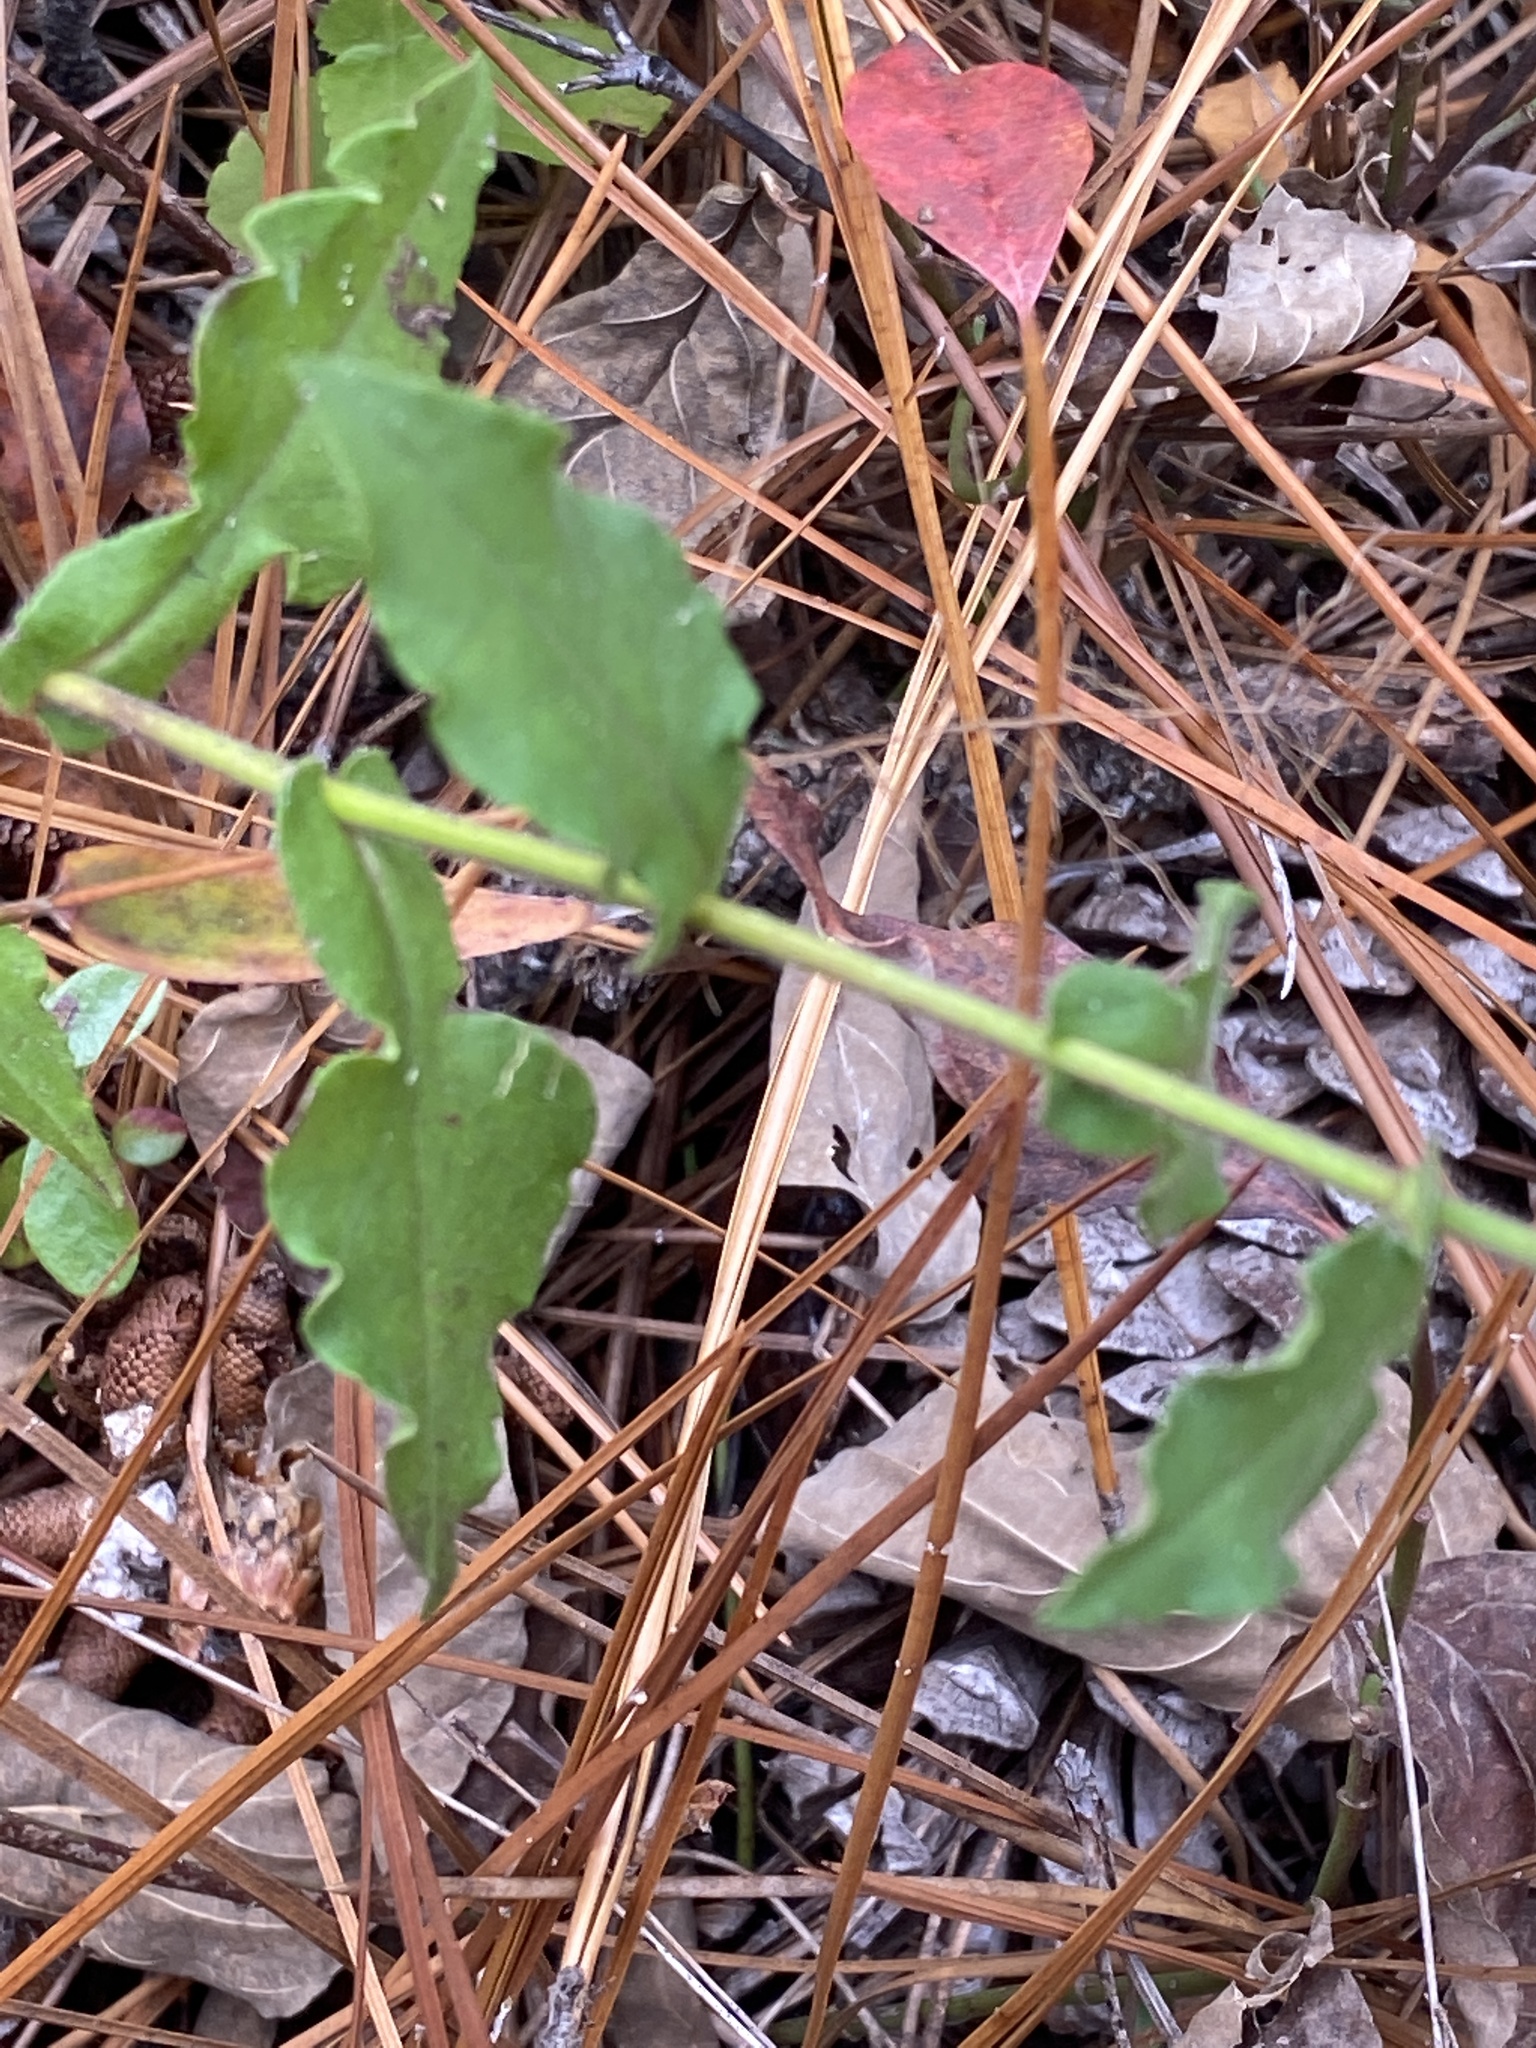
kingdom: Plantae
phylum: Tracheophyta
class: Magnoliopsida
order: Asterales
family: Asteraceae
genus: Symphyotrichum
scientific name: Symphyotrichum undulatum
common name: Clasping heart-leaf aster
